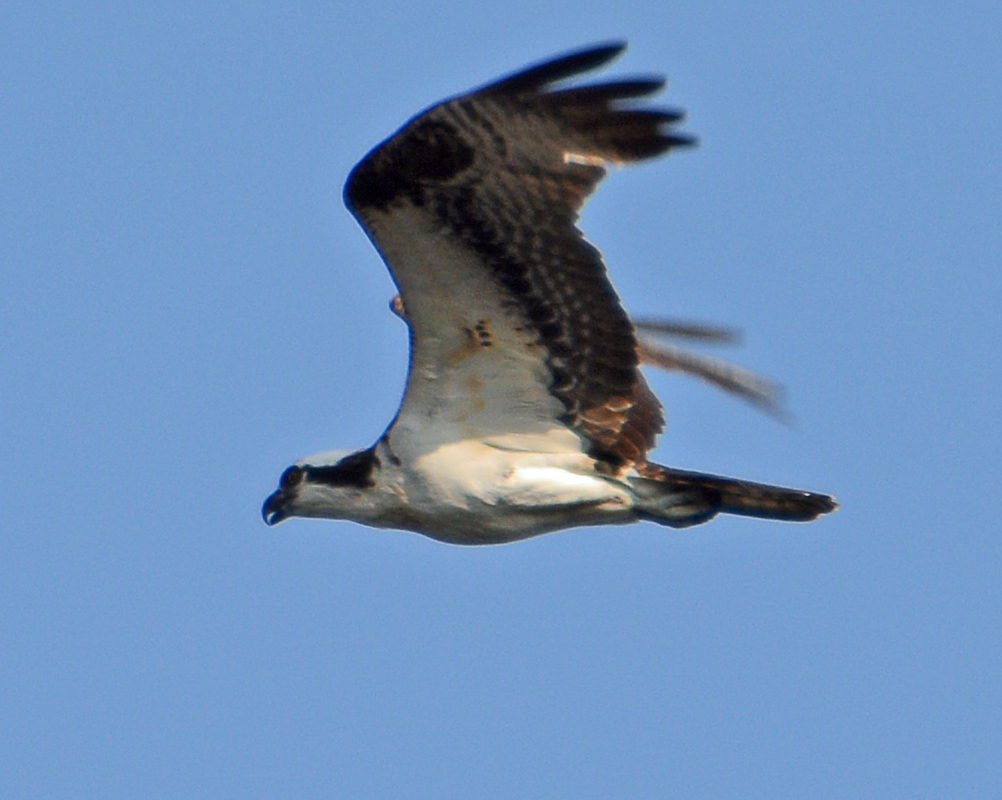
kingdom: Animalia
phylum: Chordata
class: Aves
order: Accipitriformes
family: Pandionidae
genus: Pandion
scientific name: Pandion haliaetus
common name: Osprey
